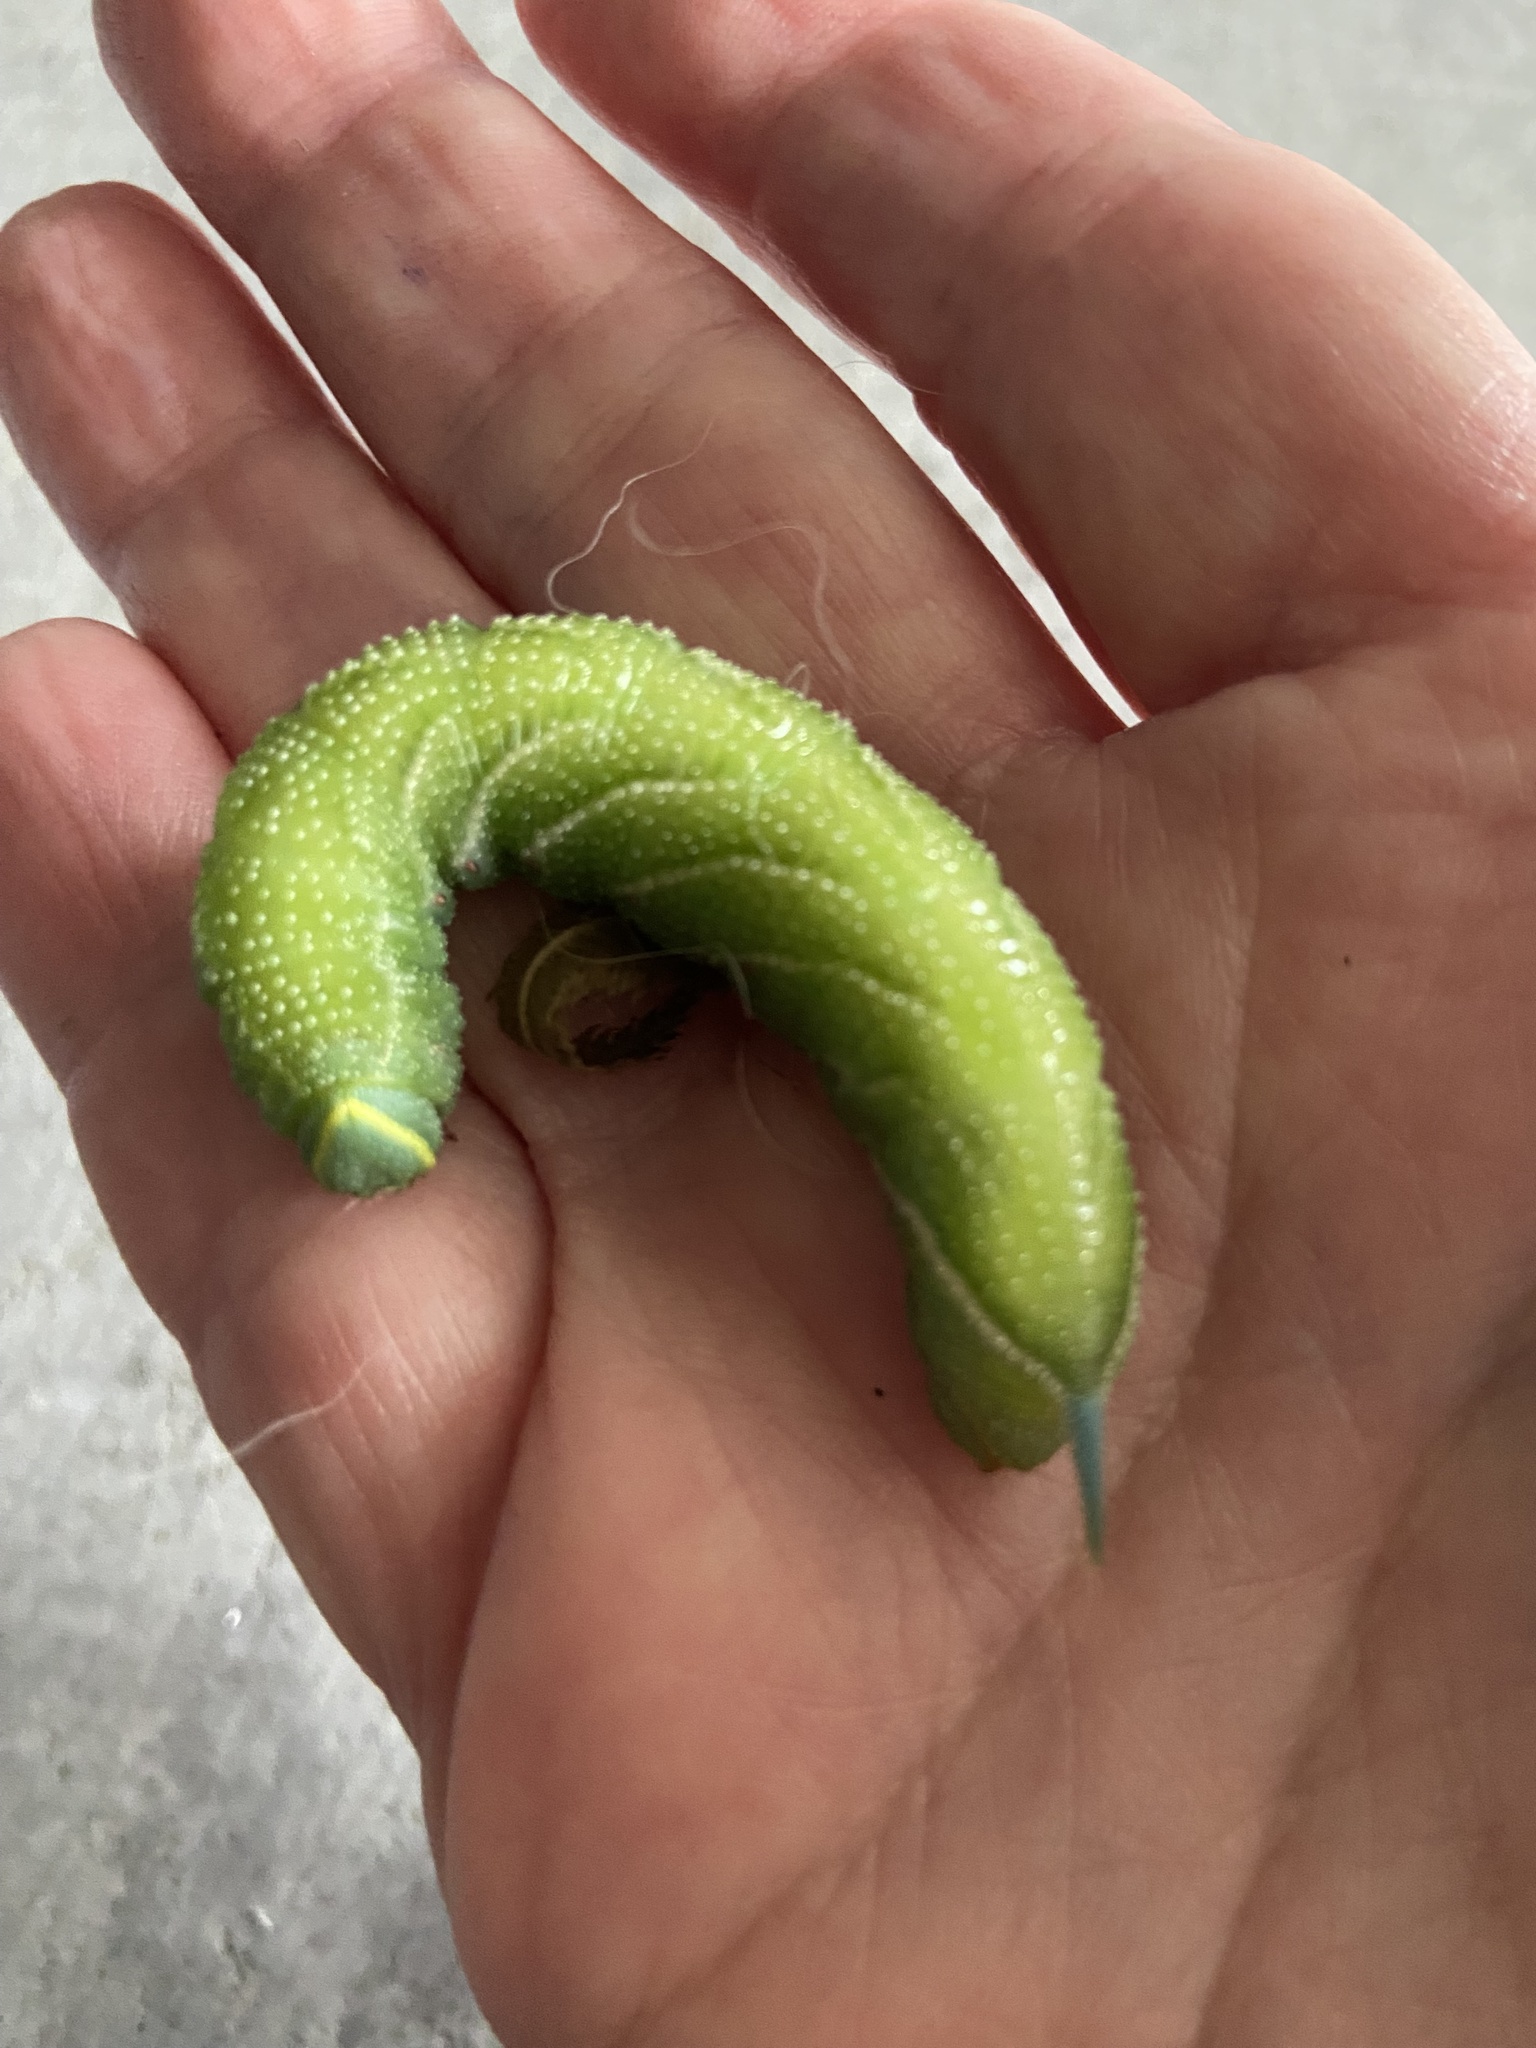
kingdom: Animalia
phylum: Arthropoda
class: Insecta
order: Lepidoptera
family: Sphingidae
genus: Smerinthus
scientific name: Smerinthus ocellata
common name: Eyed hawk-moth
